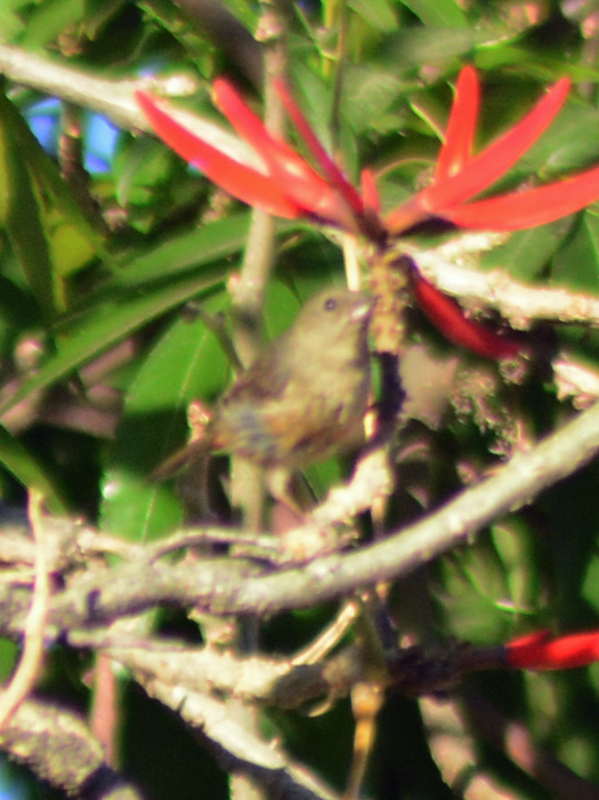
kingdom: Animalia
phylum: Chordata
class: Aves
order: Passeriformes
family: Thraupidae
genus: Diglossa
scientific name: Diglossa baritula
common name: Cinnamon-bellied flowerpiercer
